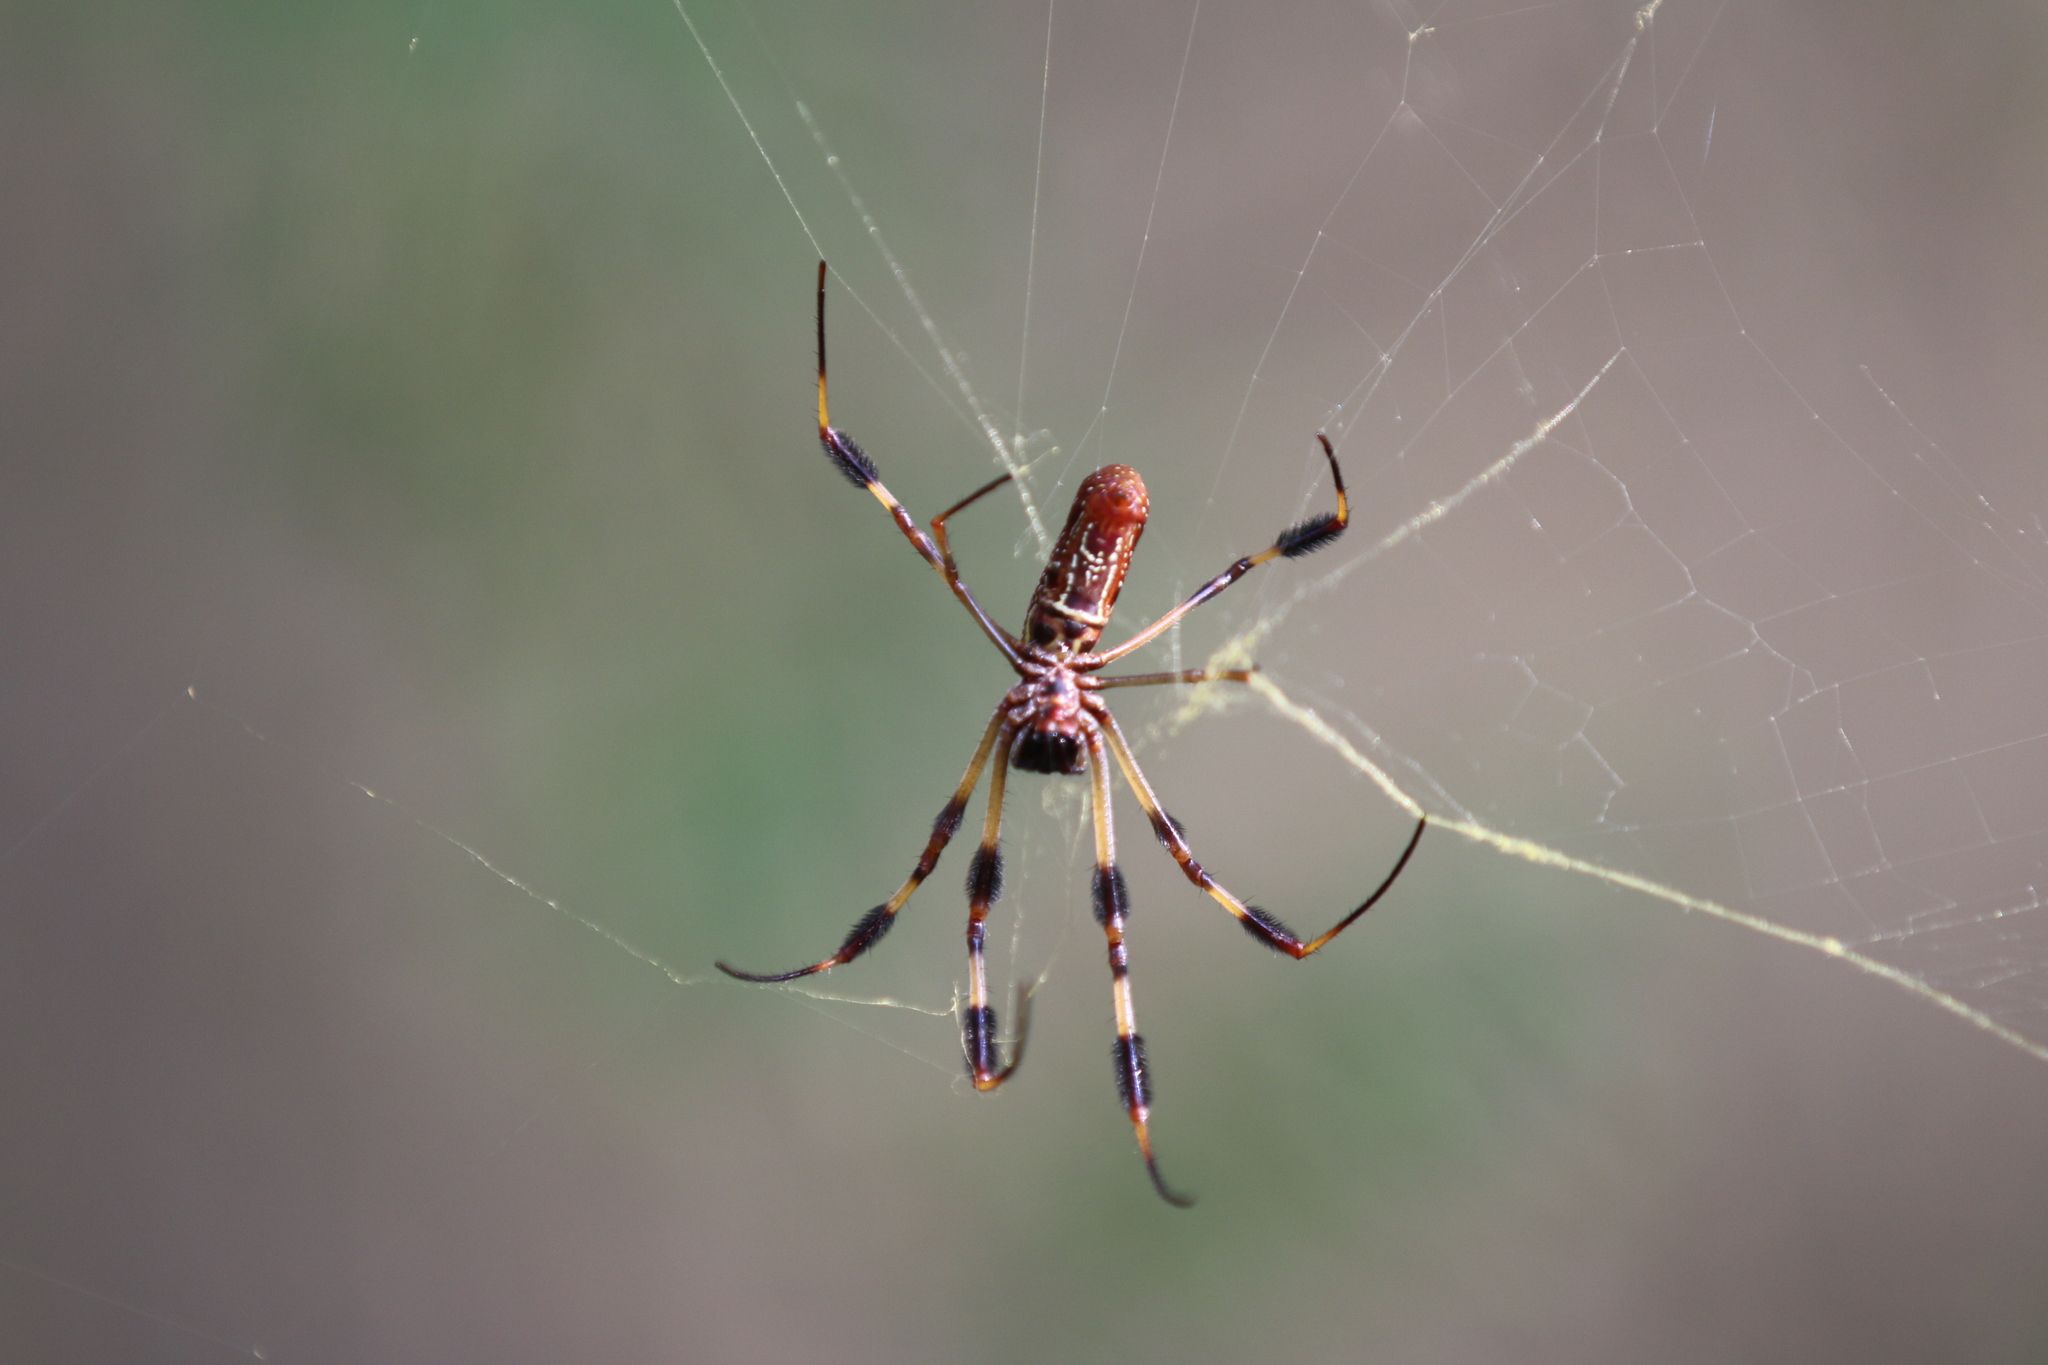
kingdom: Animalia
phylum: Arthropoda
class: Arachnida
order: Araneae
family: Araneidae
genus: Trichonephila
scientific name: Trichonephila clavipes
